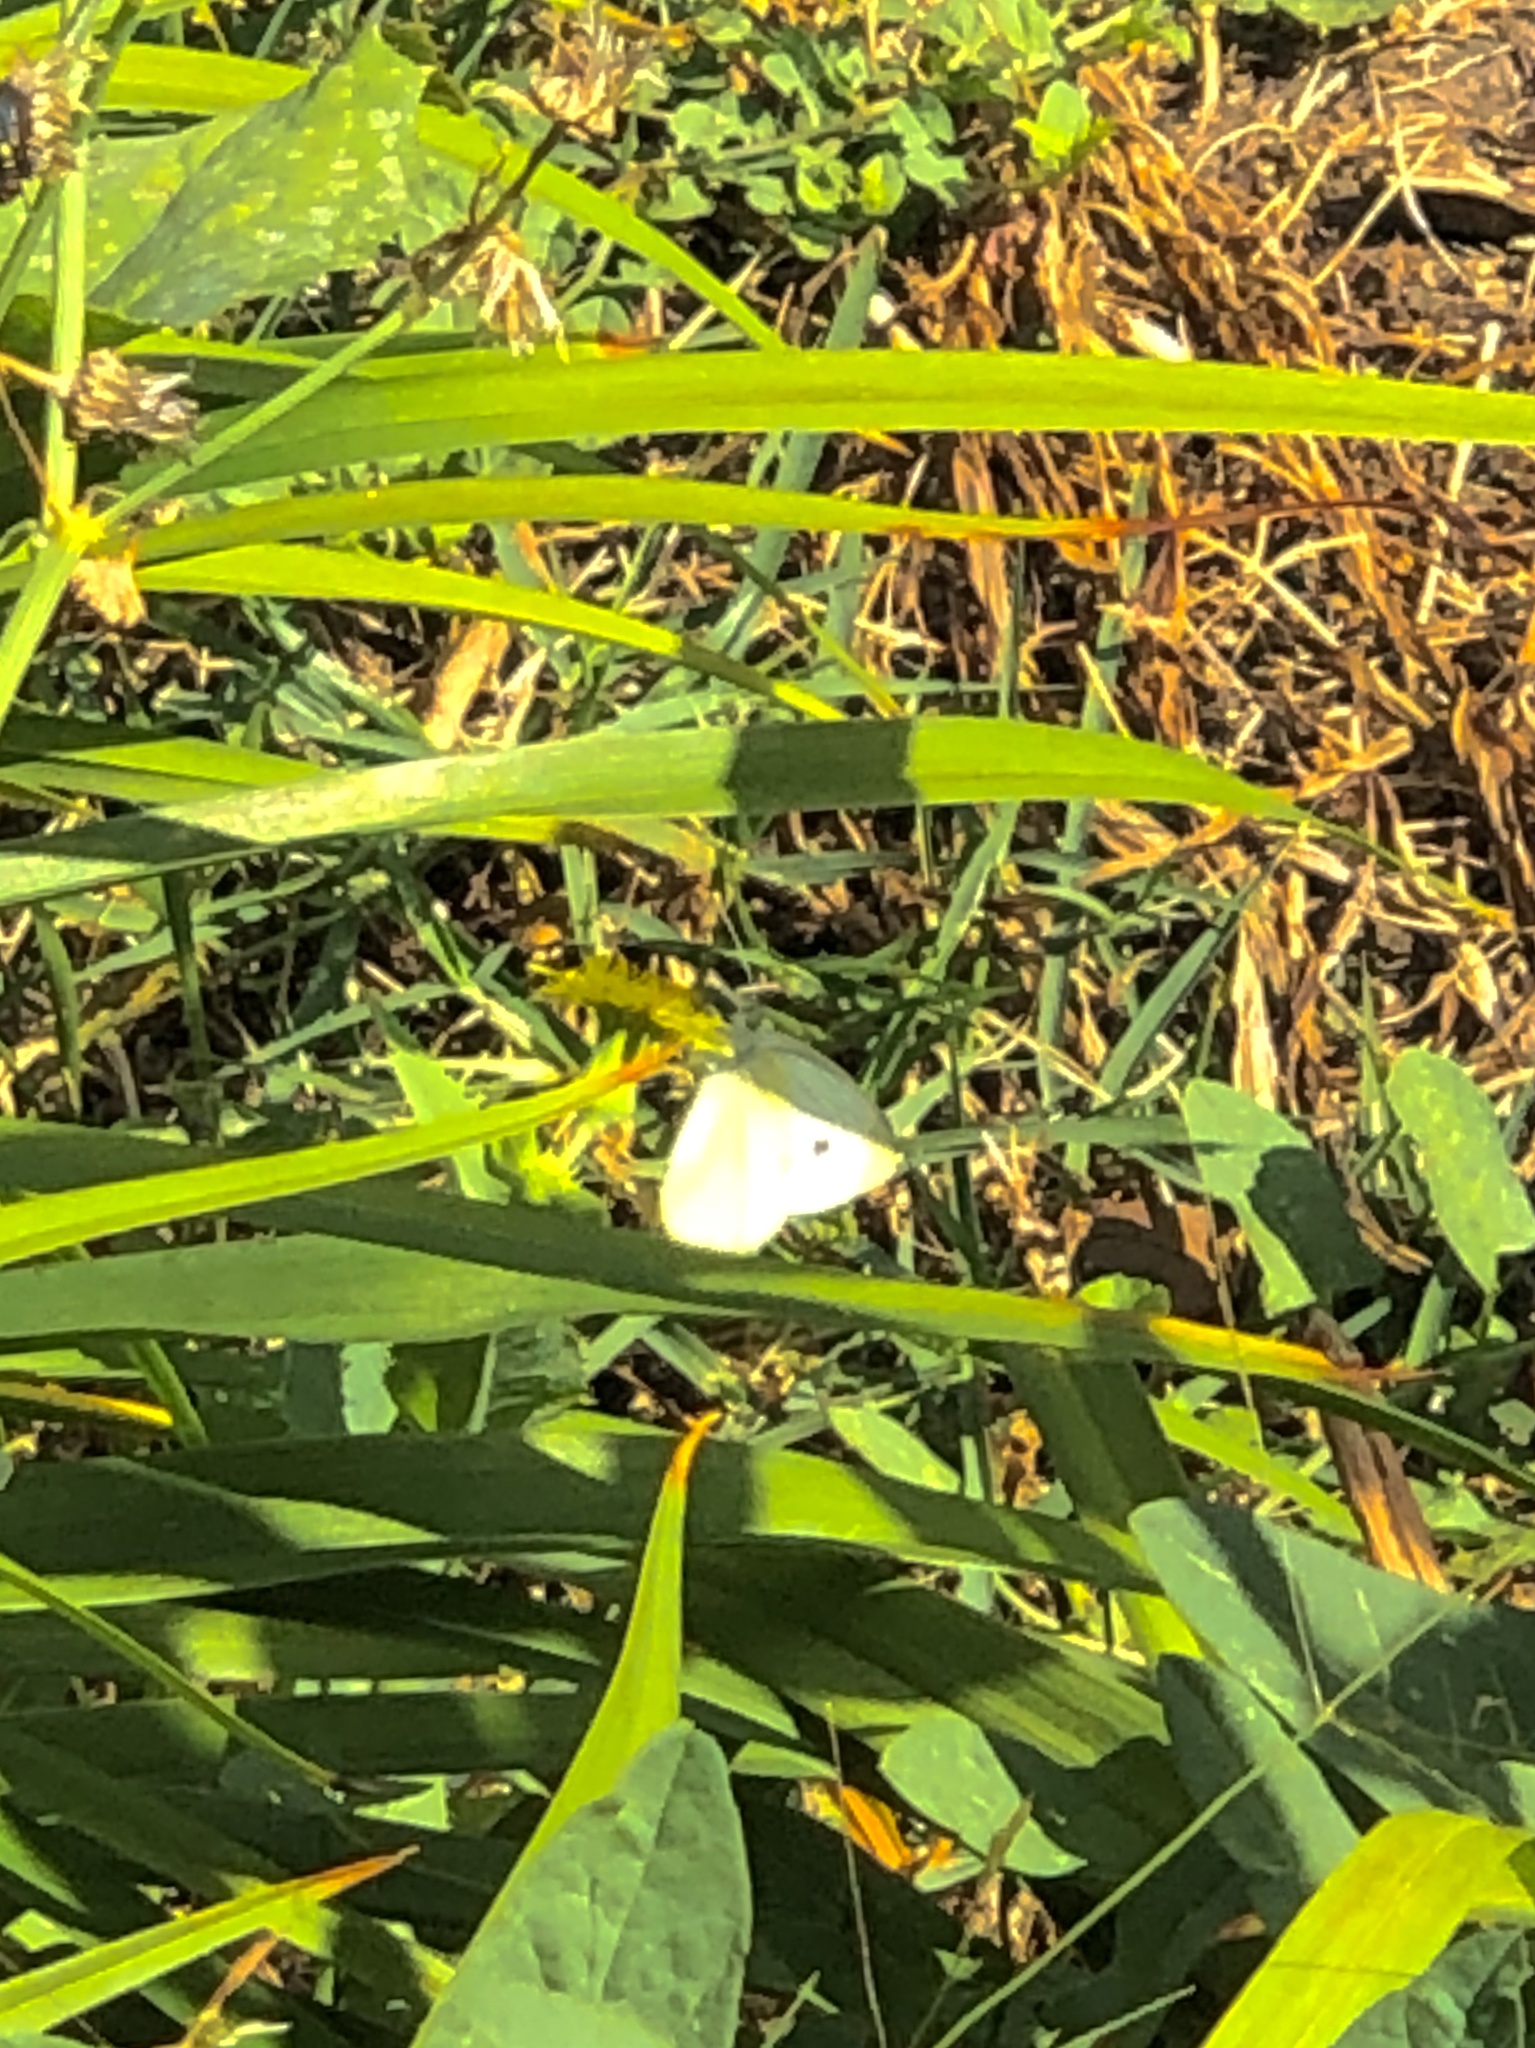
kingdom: Animalia
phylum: Arthropoda
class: Insecta
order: Lepidoptera
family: Pieridae
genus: Pieris
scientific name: Pieris rapae
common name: Small white
